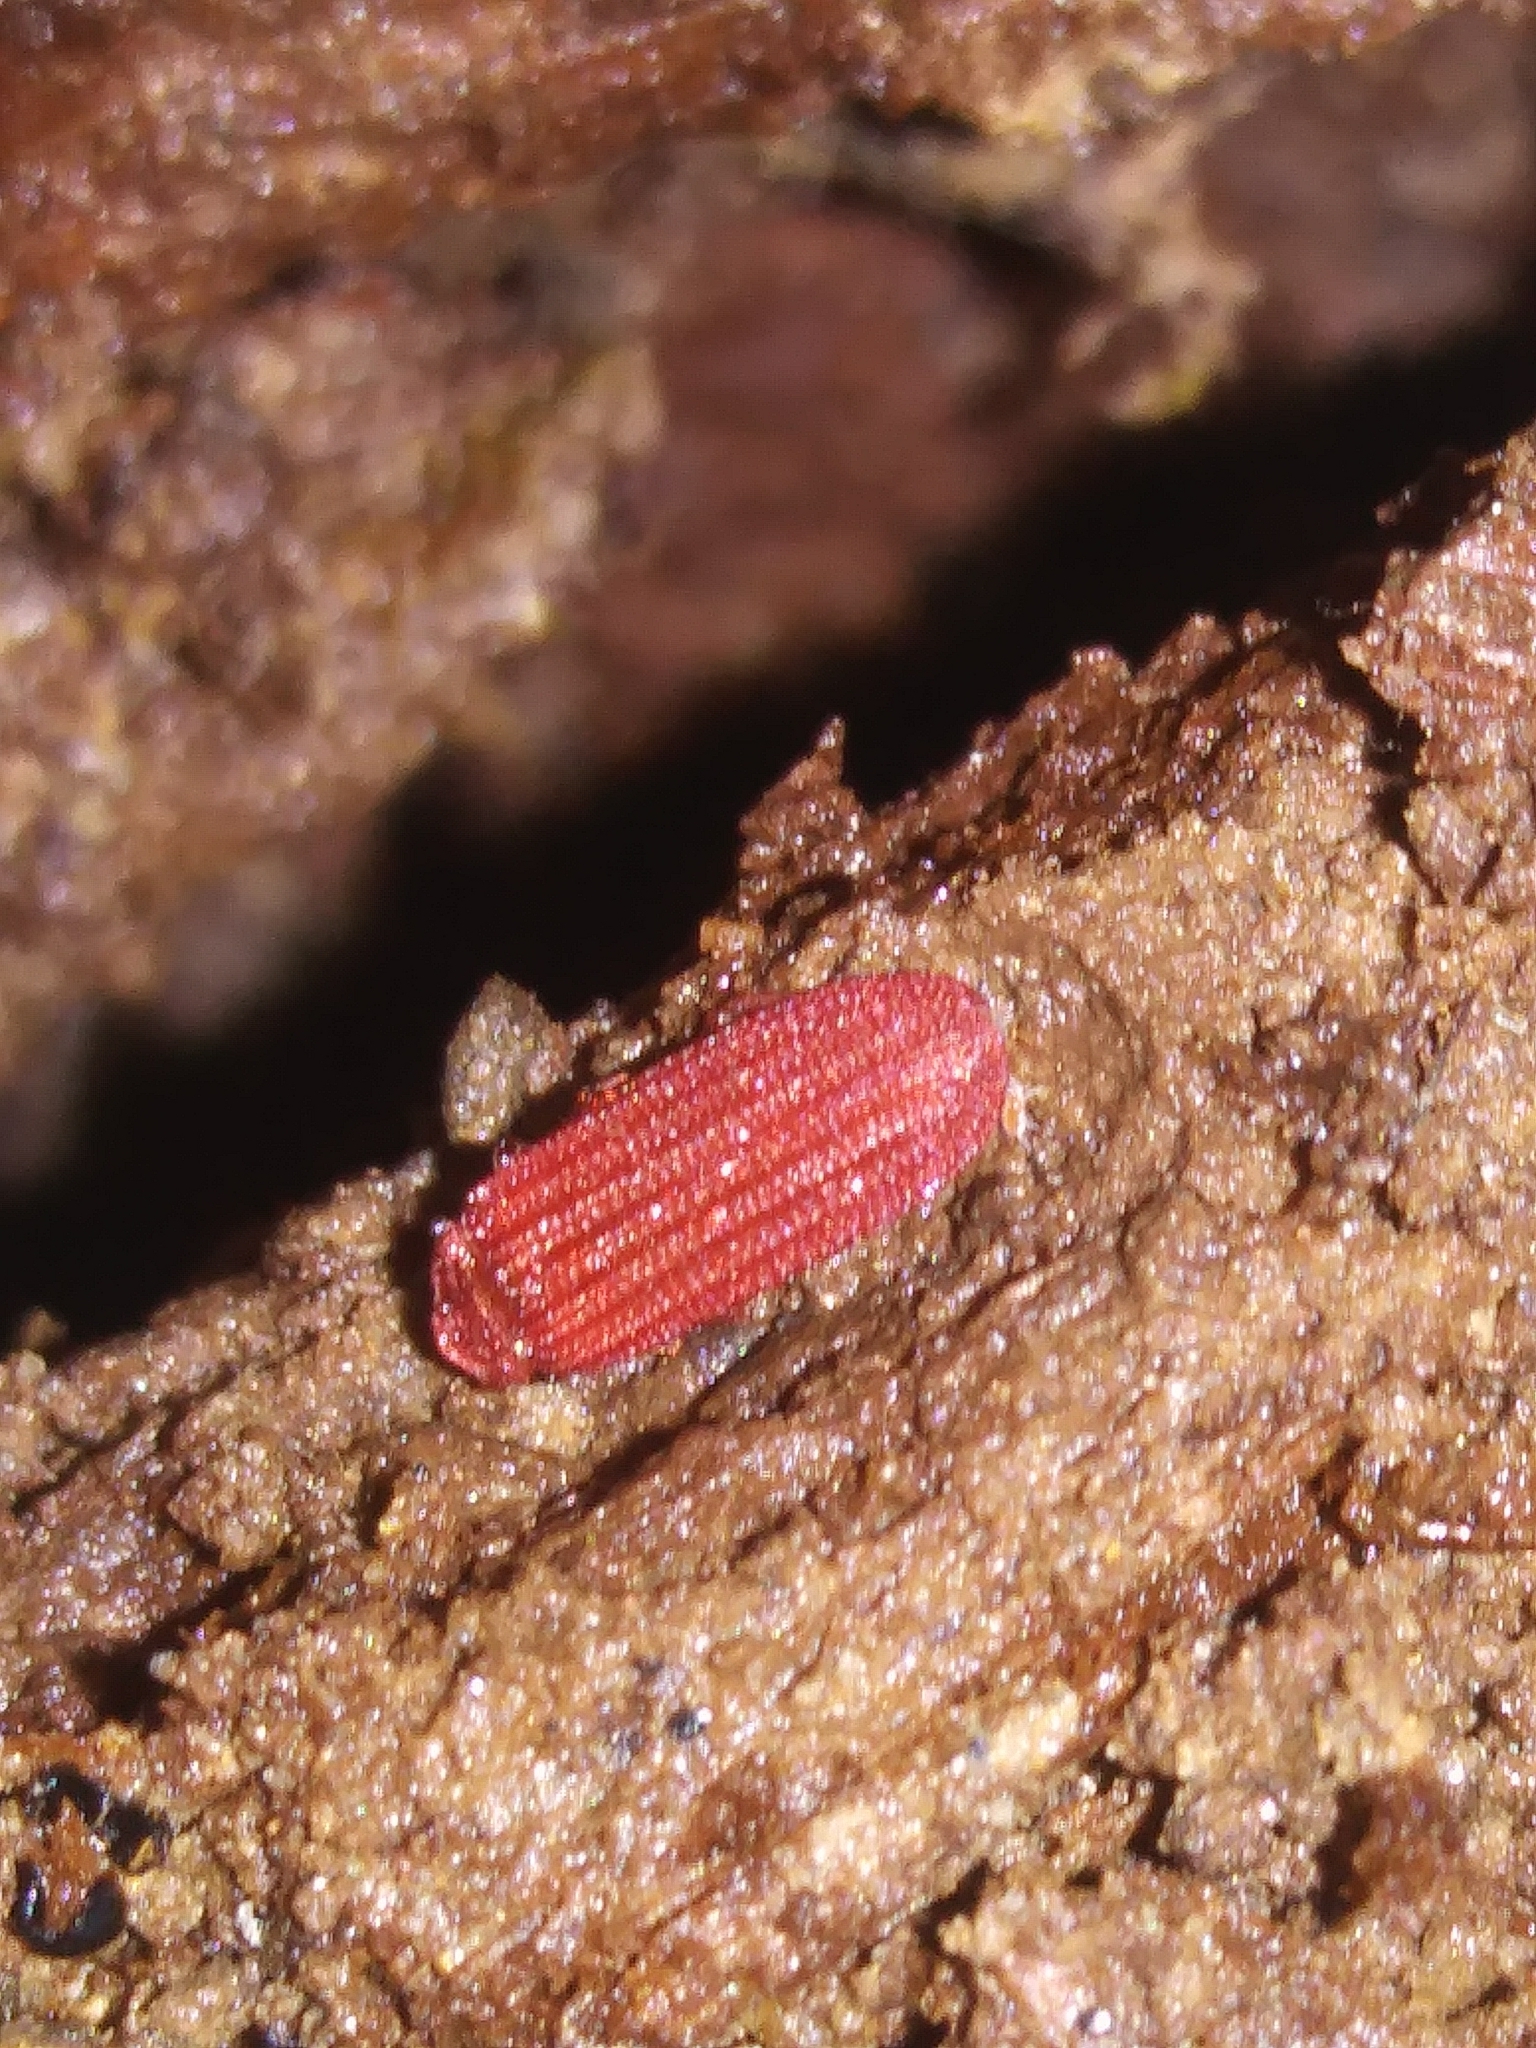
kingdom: Animalia
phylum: Arthropoda
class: Insecta
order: Coleoptera
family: Lycidae
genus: Punicealis
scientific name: Punicealis
